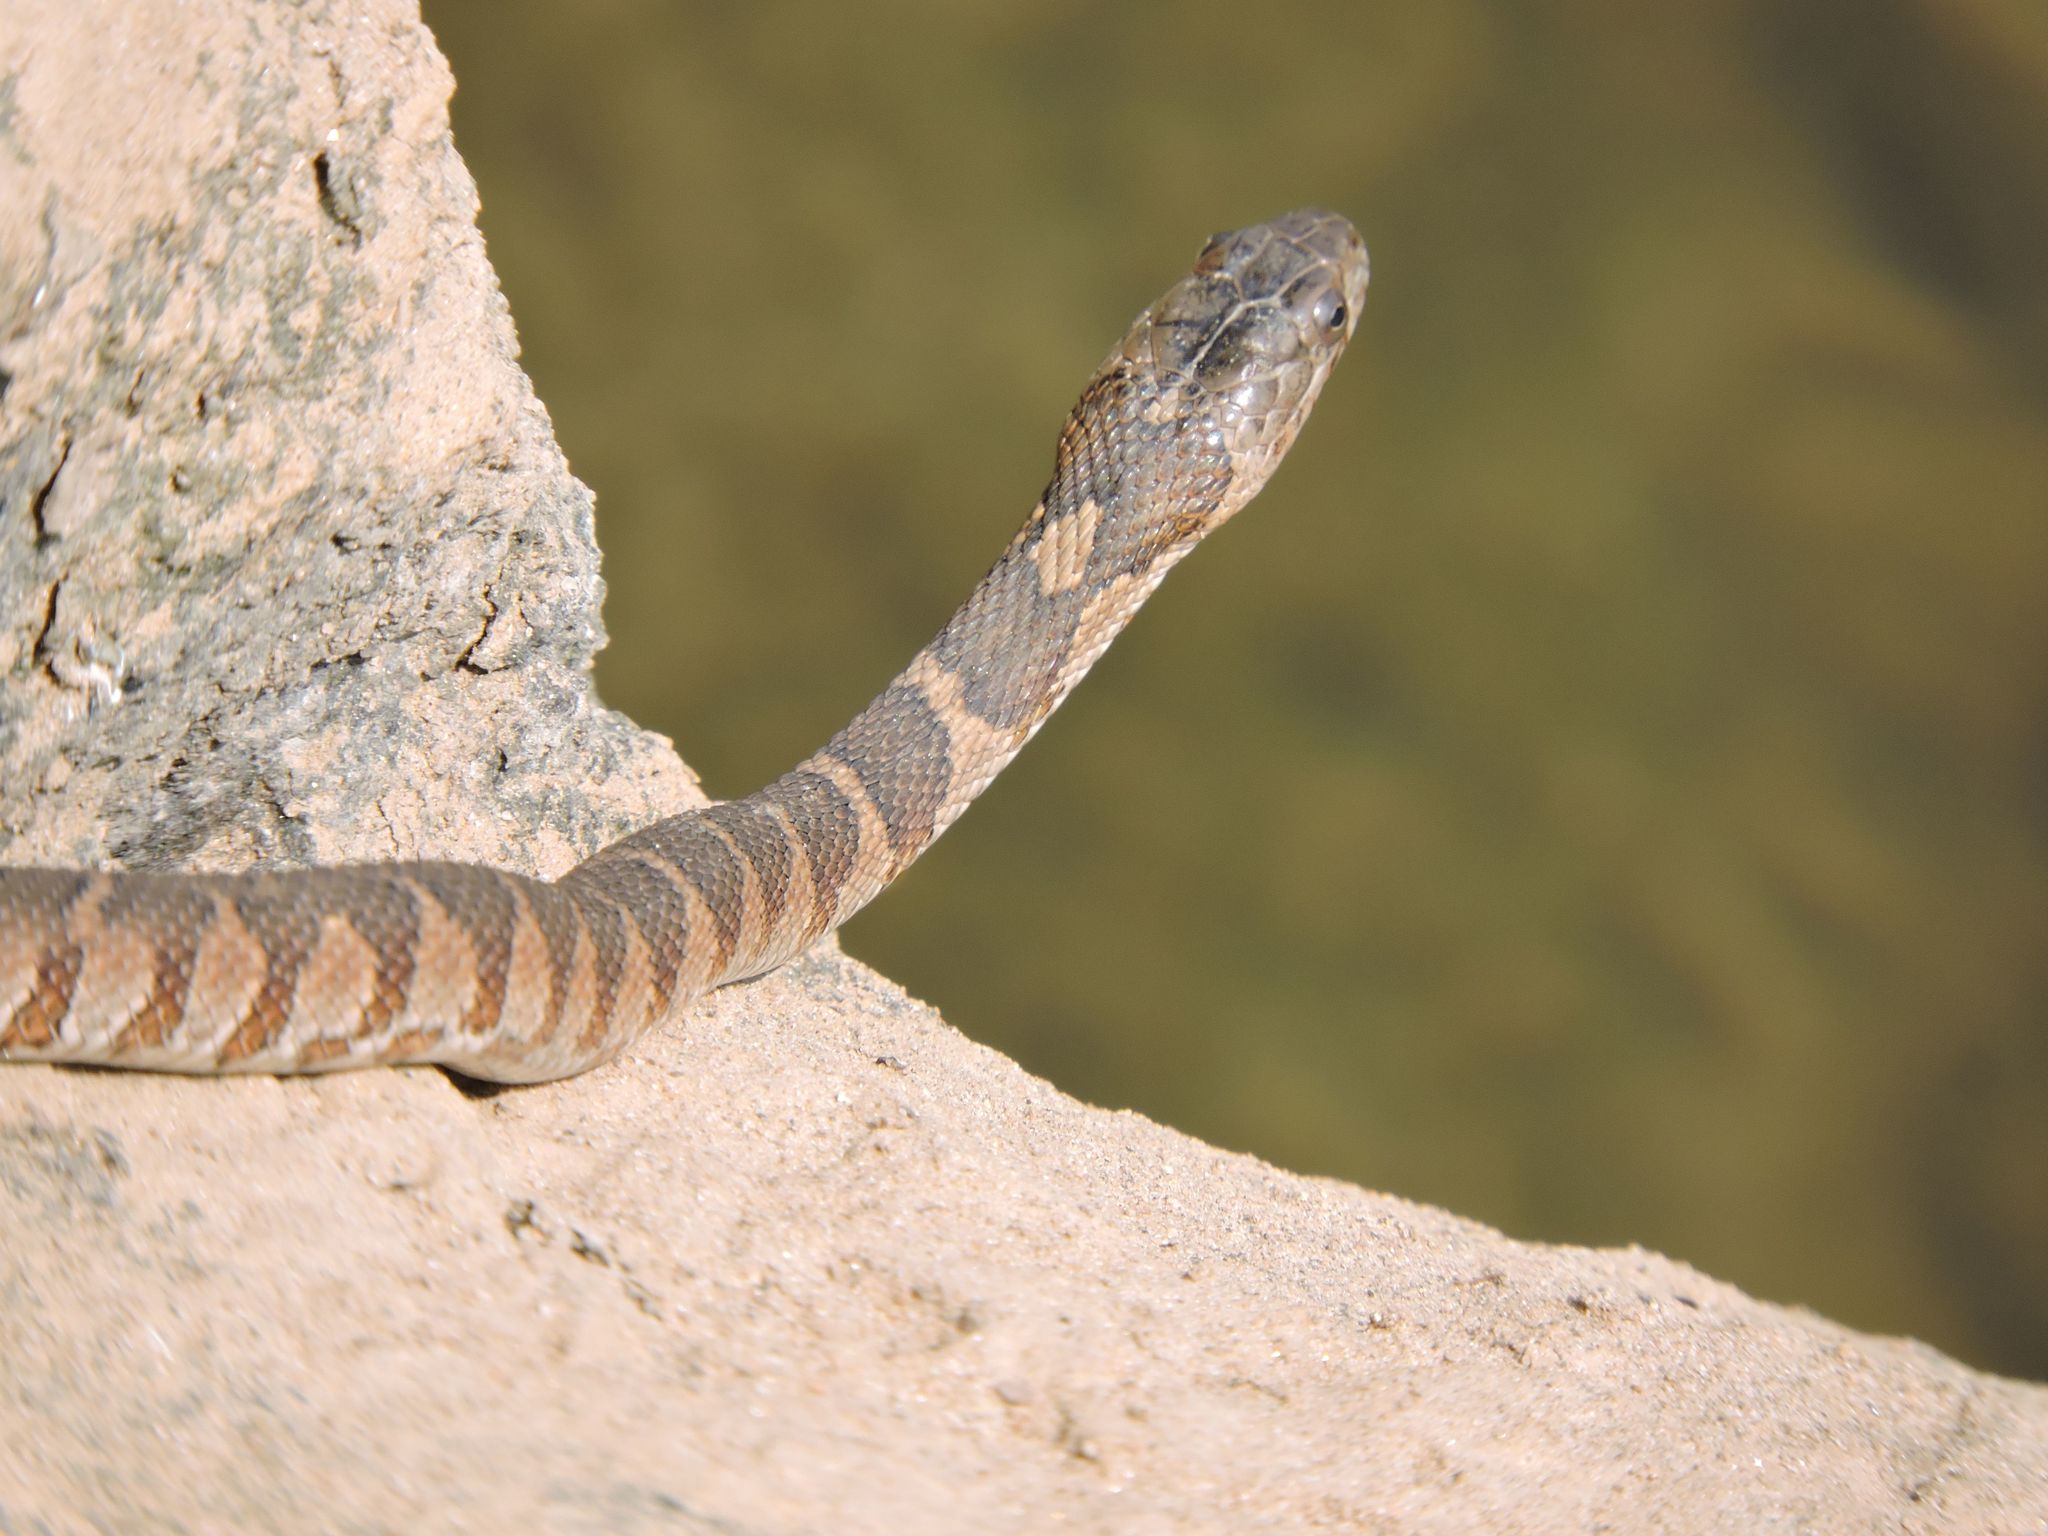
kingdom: Animalia
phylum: Chordata
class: Squamata
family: Colubridae
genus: Nerodia
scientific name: Nerodia sipedon
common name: Northern water snake
